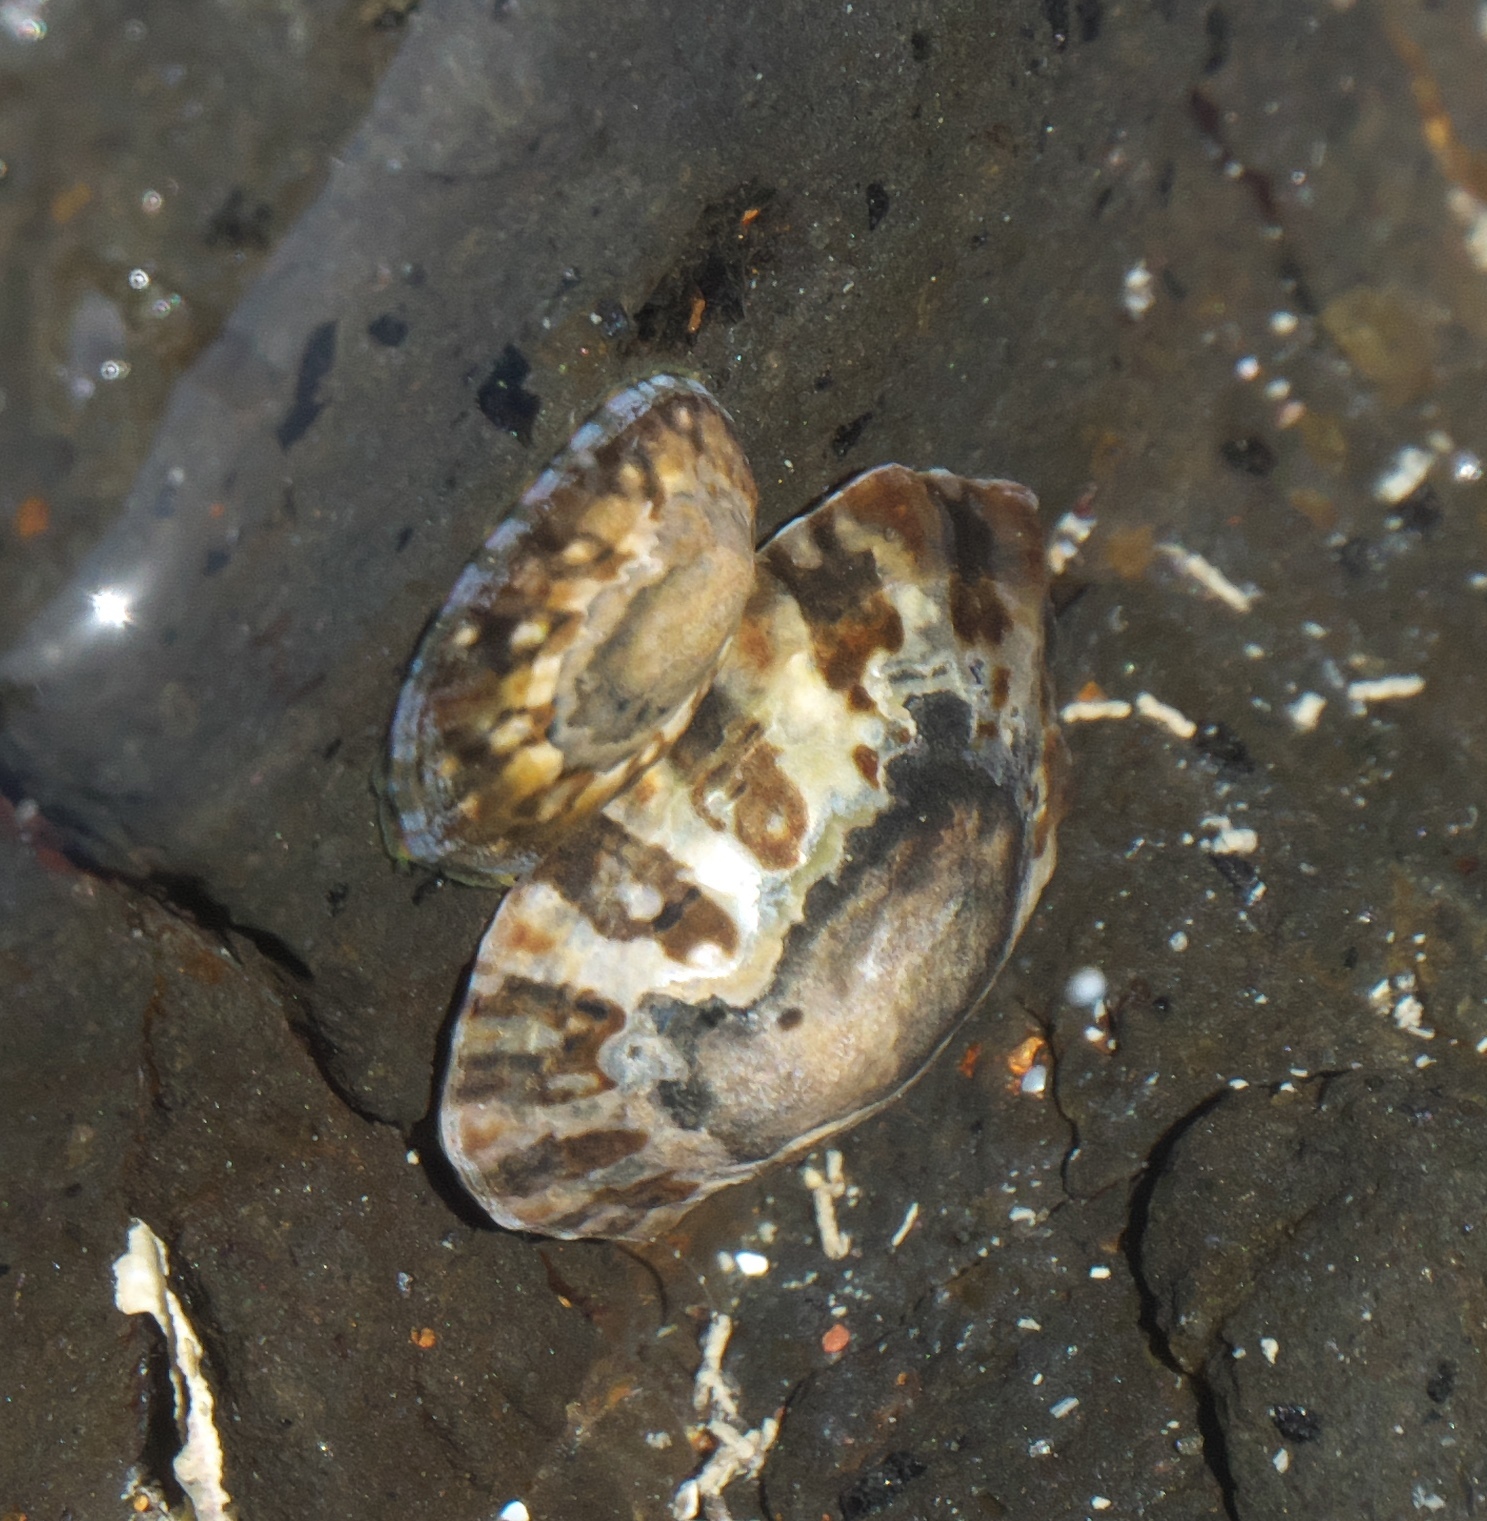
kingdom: Animalia
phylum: Mollusca
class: Gastropoda
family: Nacellidae
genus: Cellana
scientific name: Cellana ornata
